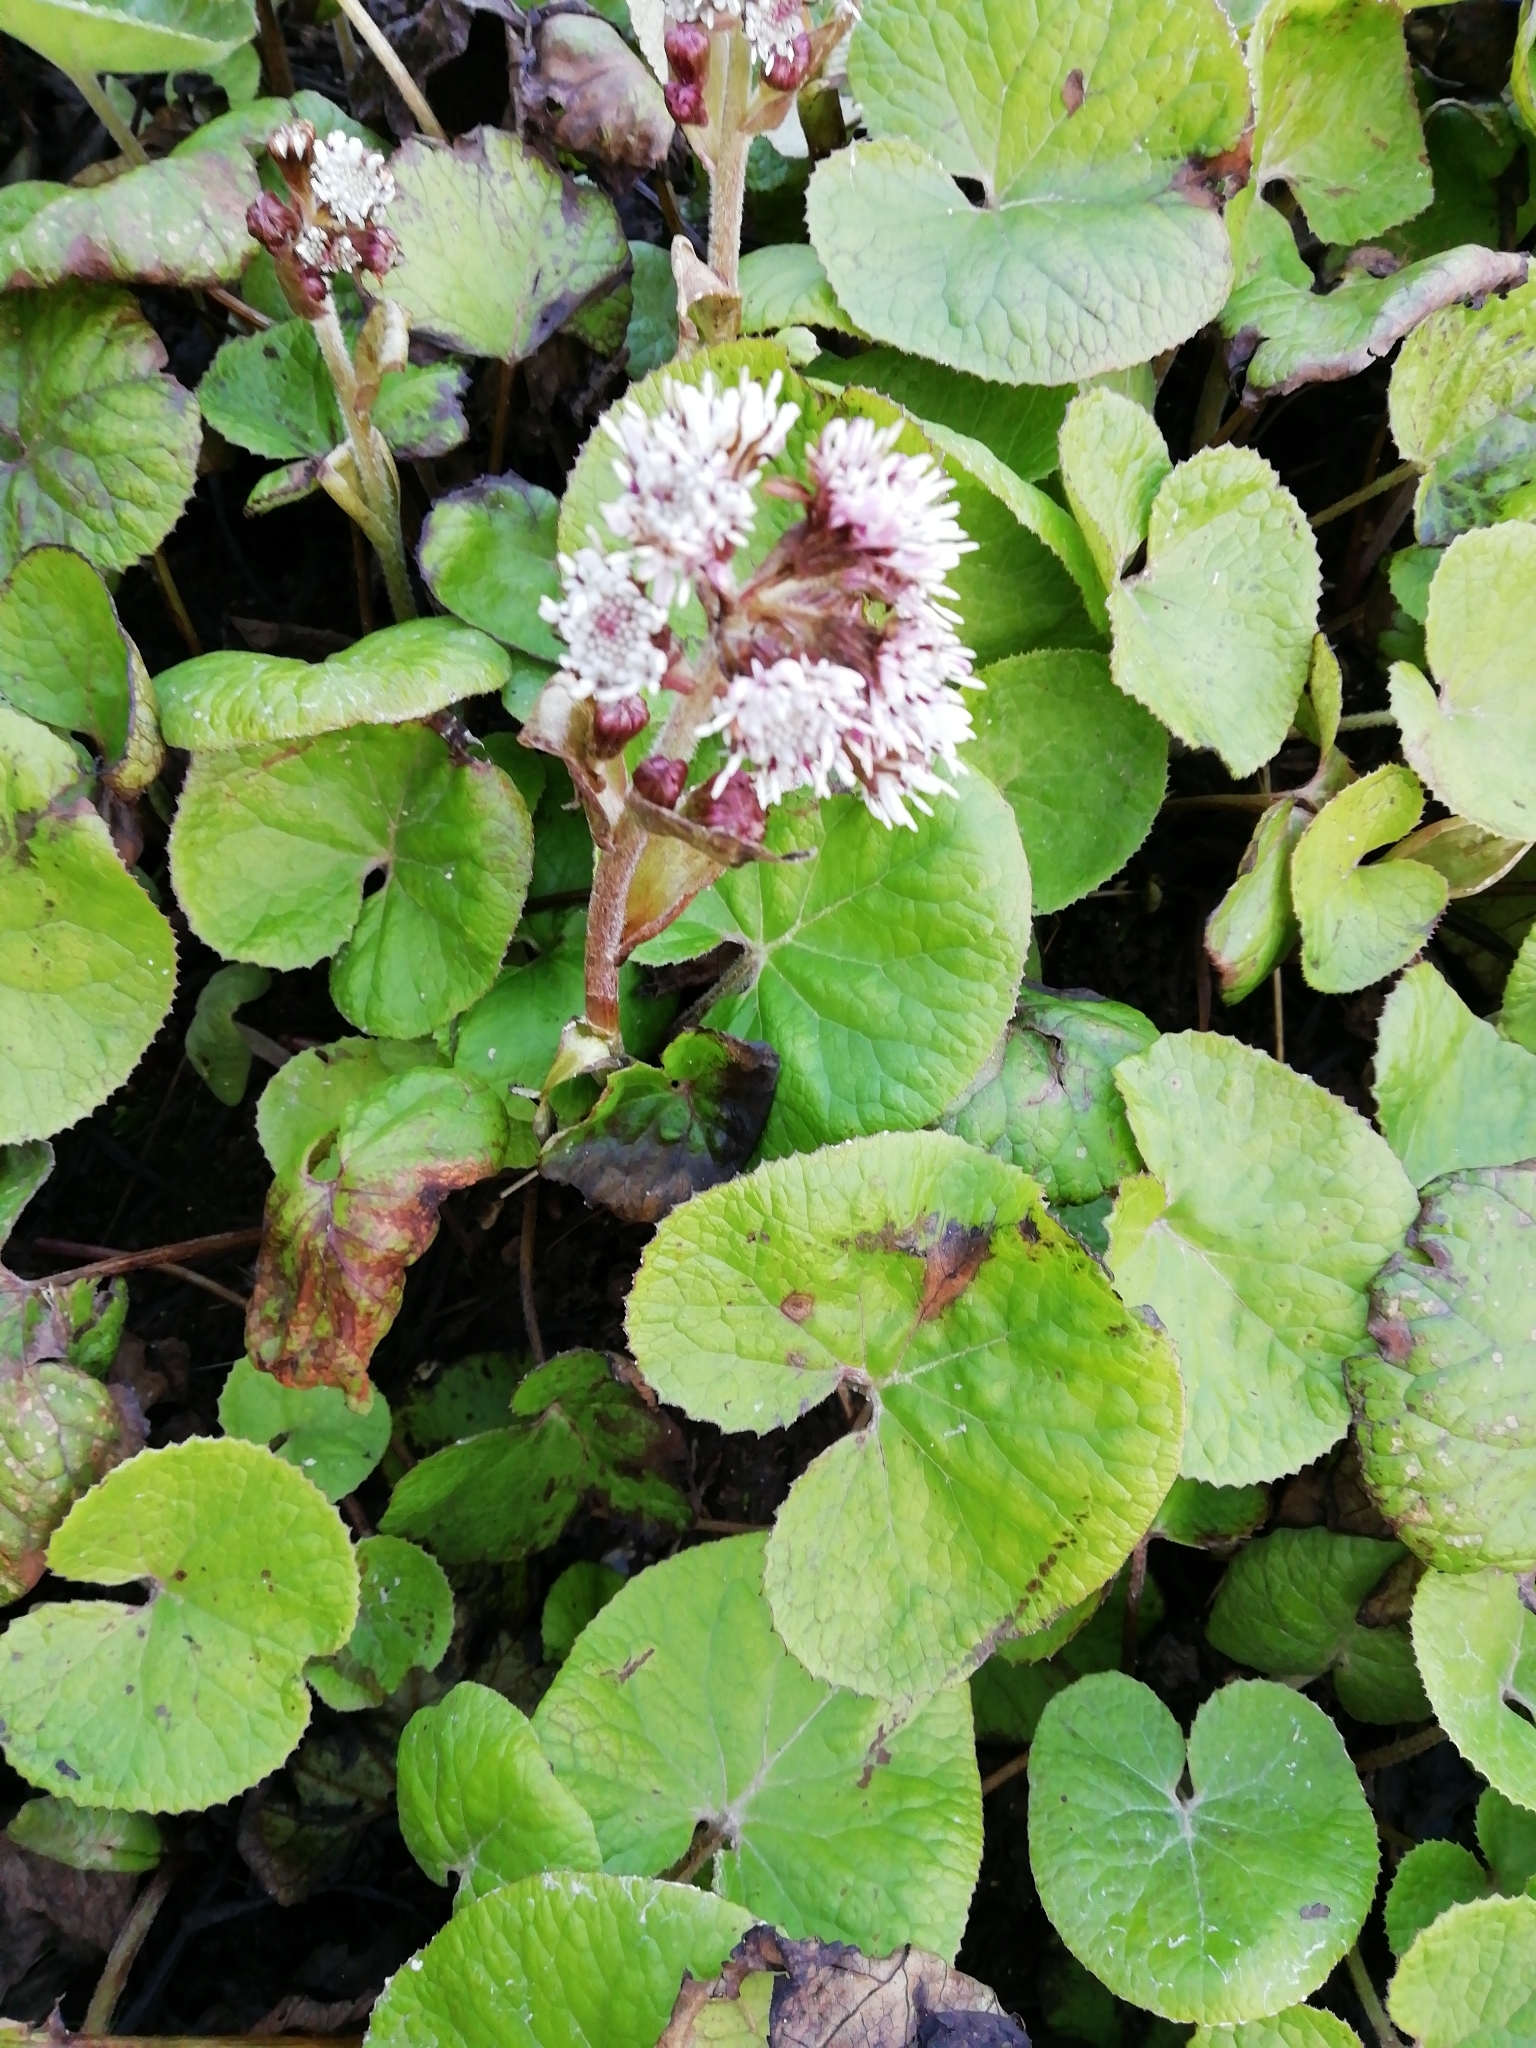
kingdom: Plantae
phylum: Tracheophyta
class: Magnoliopsida
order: Asterales
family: Asteraceae
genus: Petasites
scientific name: Petasites pyrenaicus
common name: Winter heliotrope
